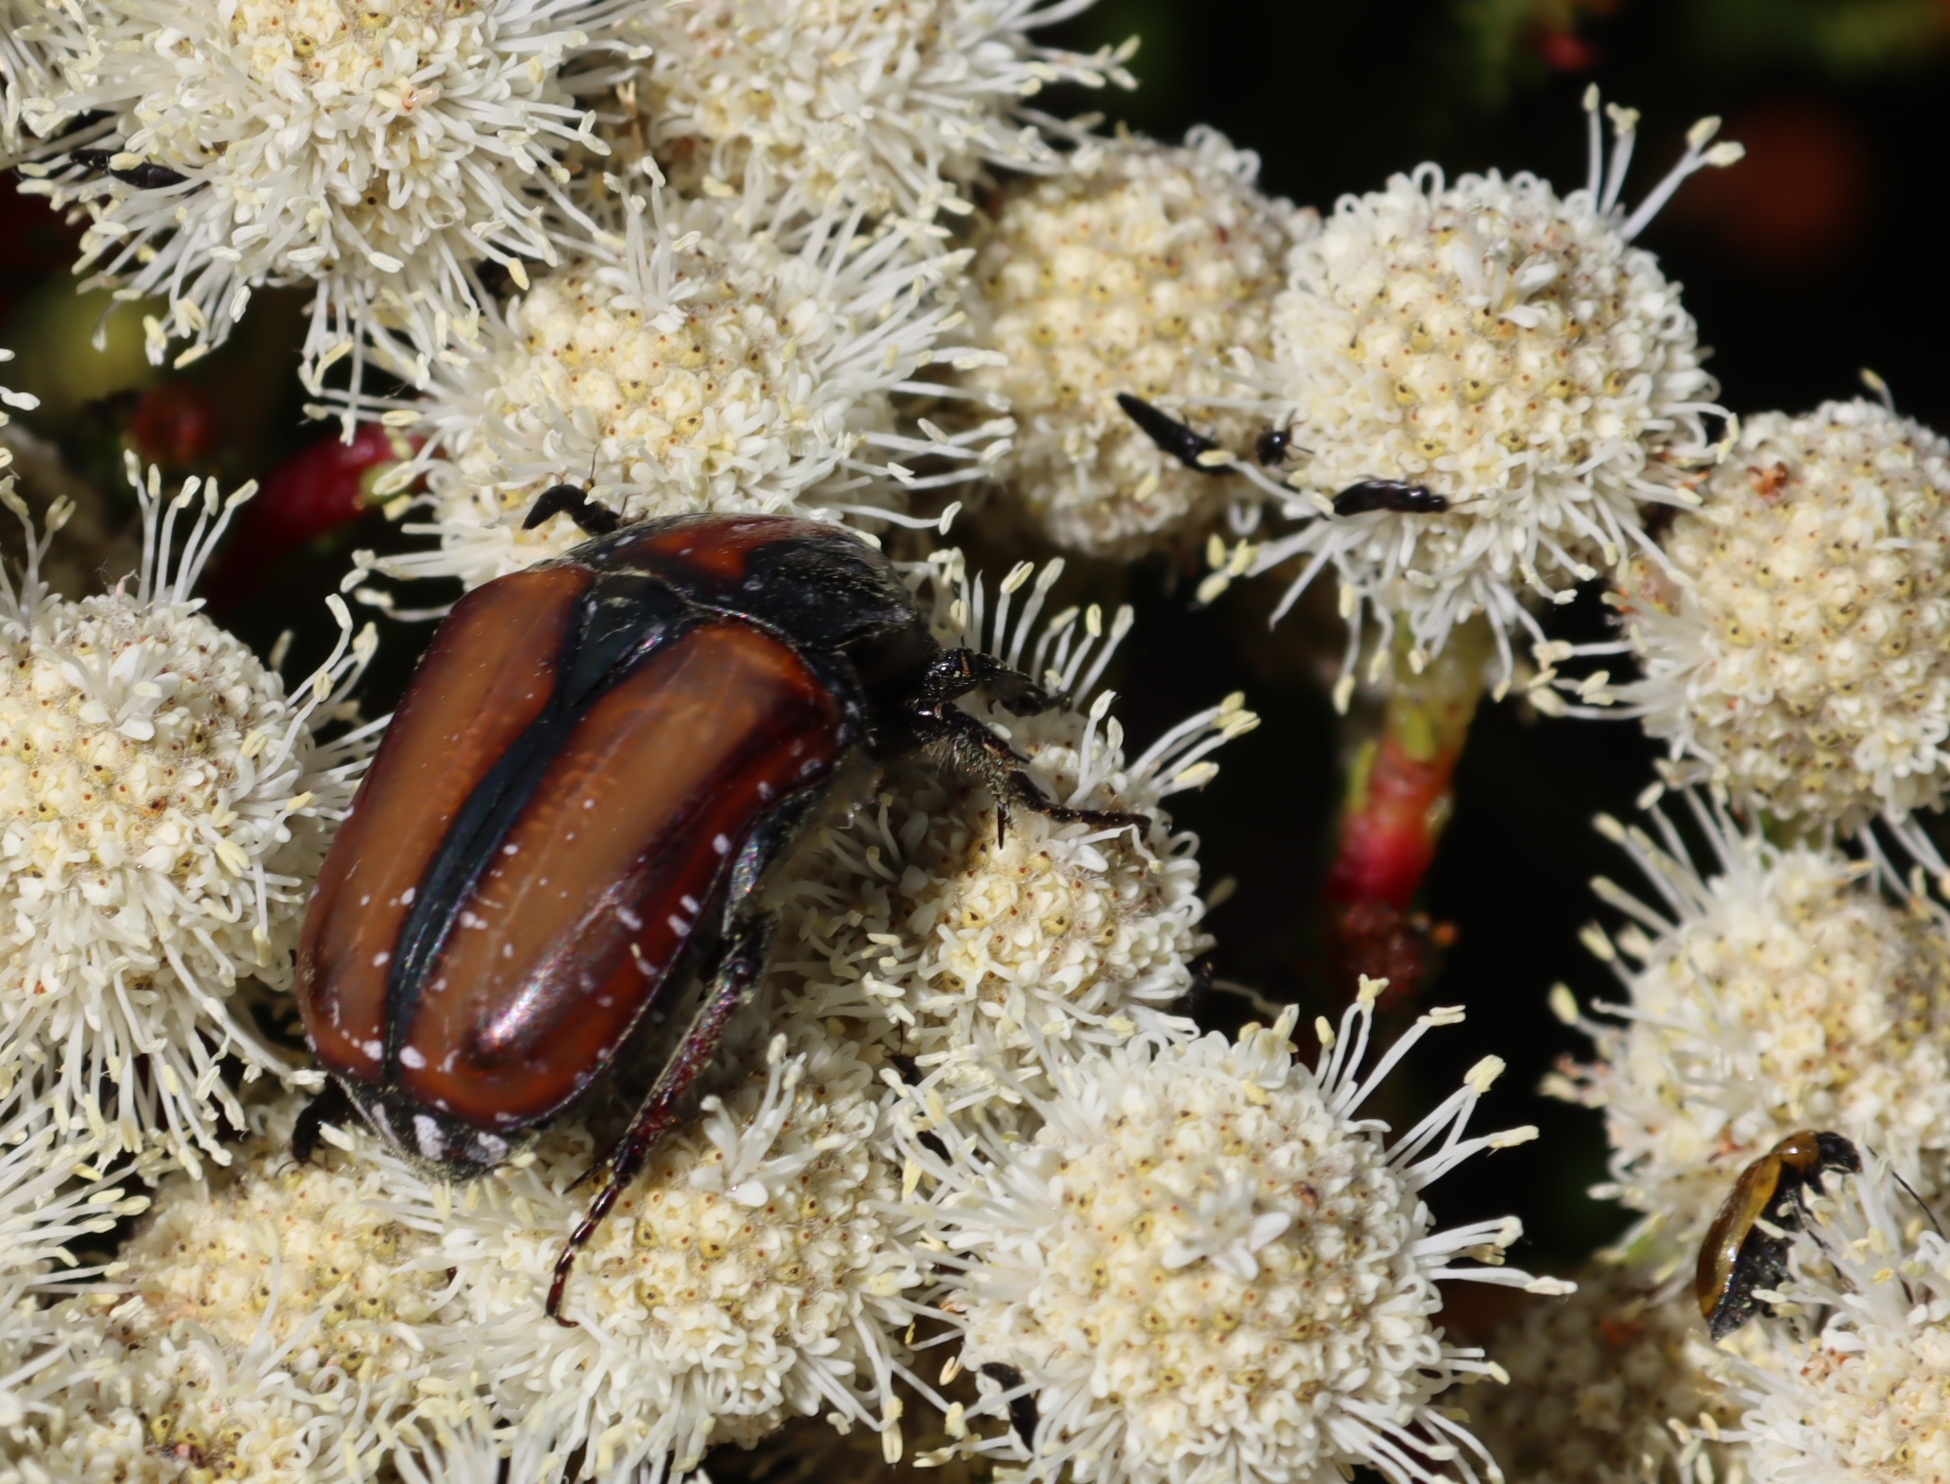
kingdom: Animalia
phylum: Arthropoda
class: Insecta
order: Coleoptera
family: Scarabaeidae
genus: Trichostetha
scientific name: Trichostetha capensis
